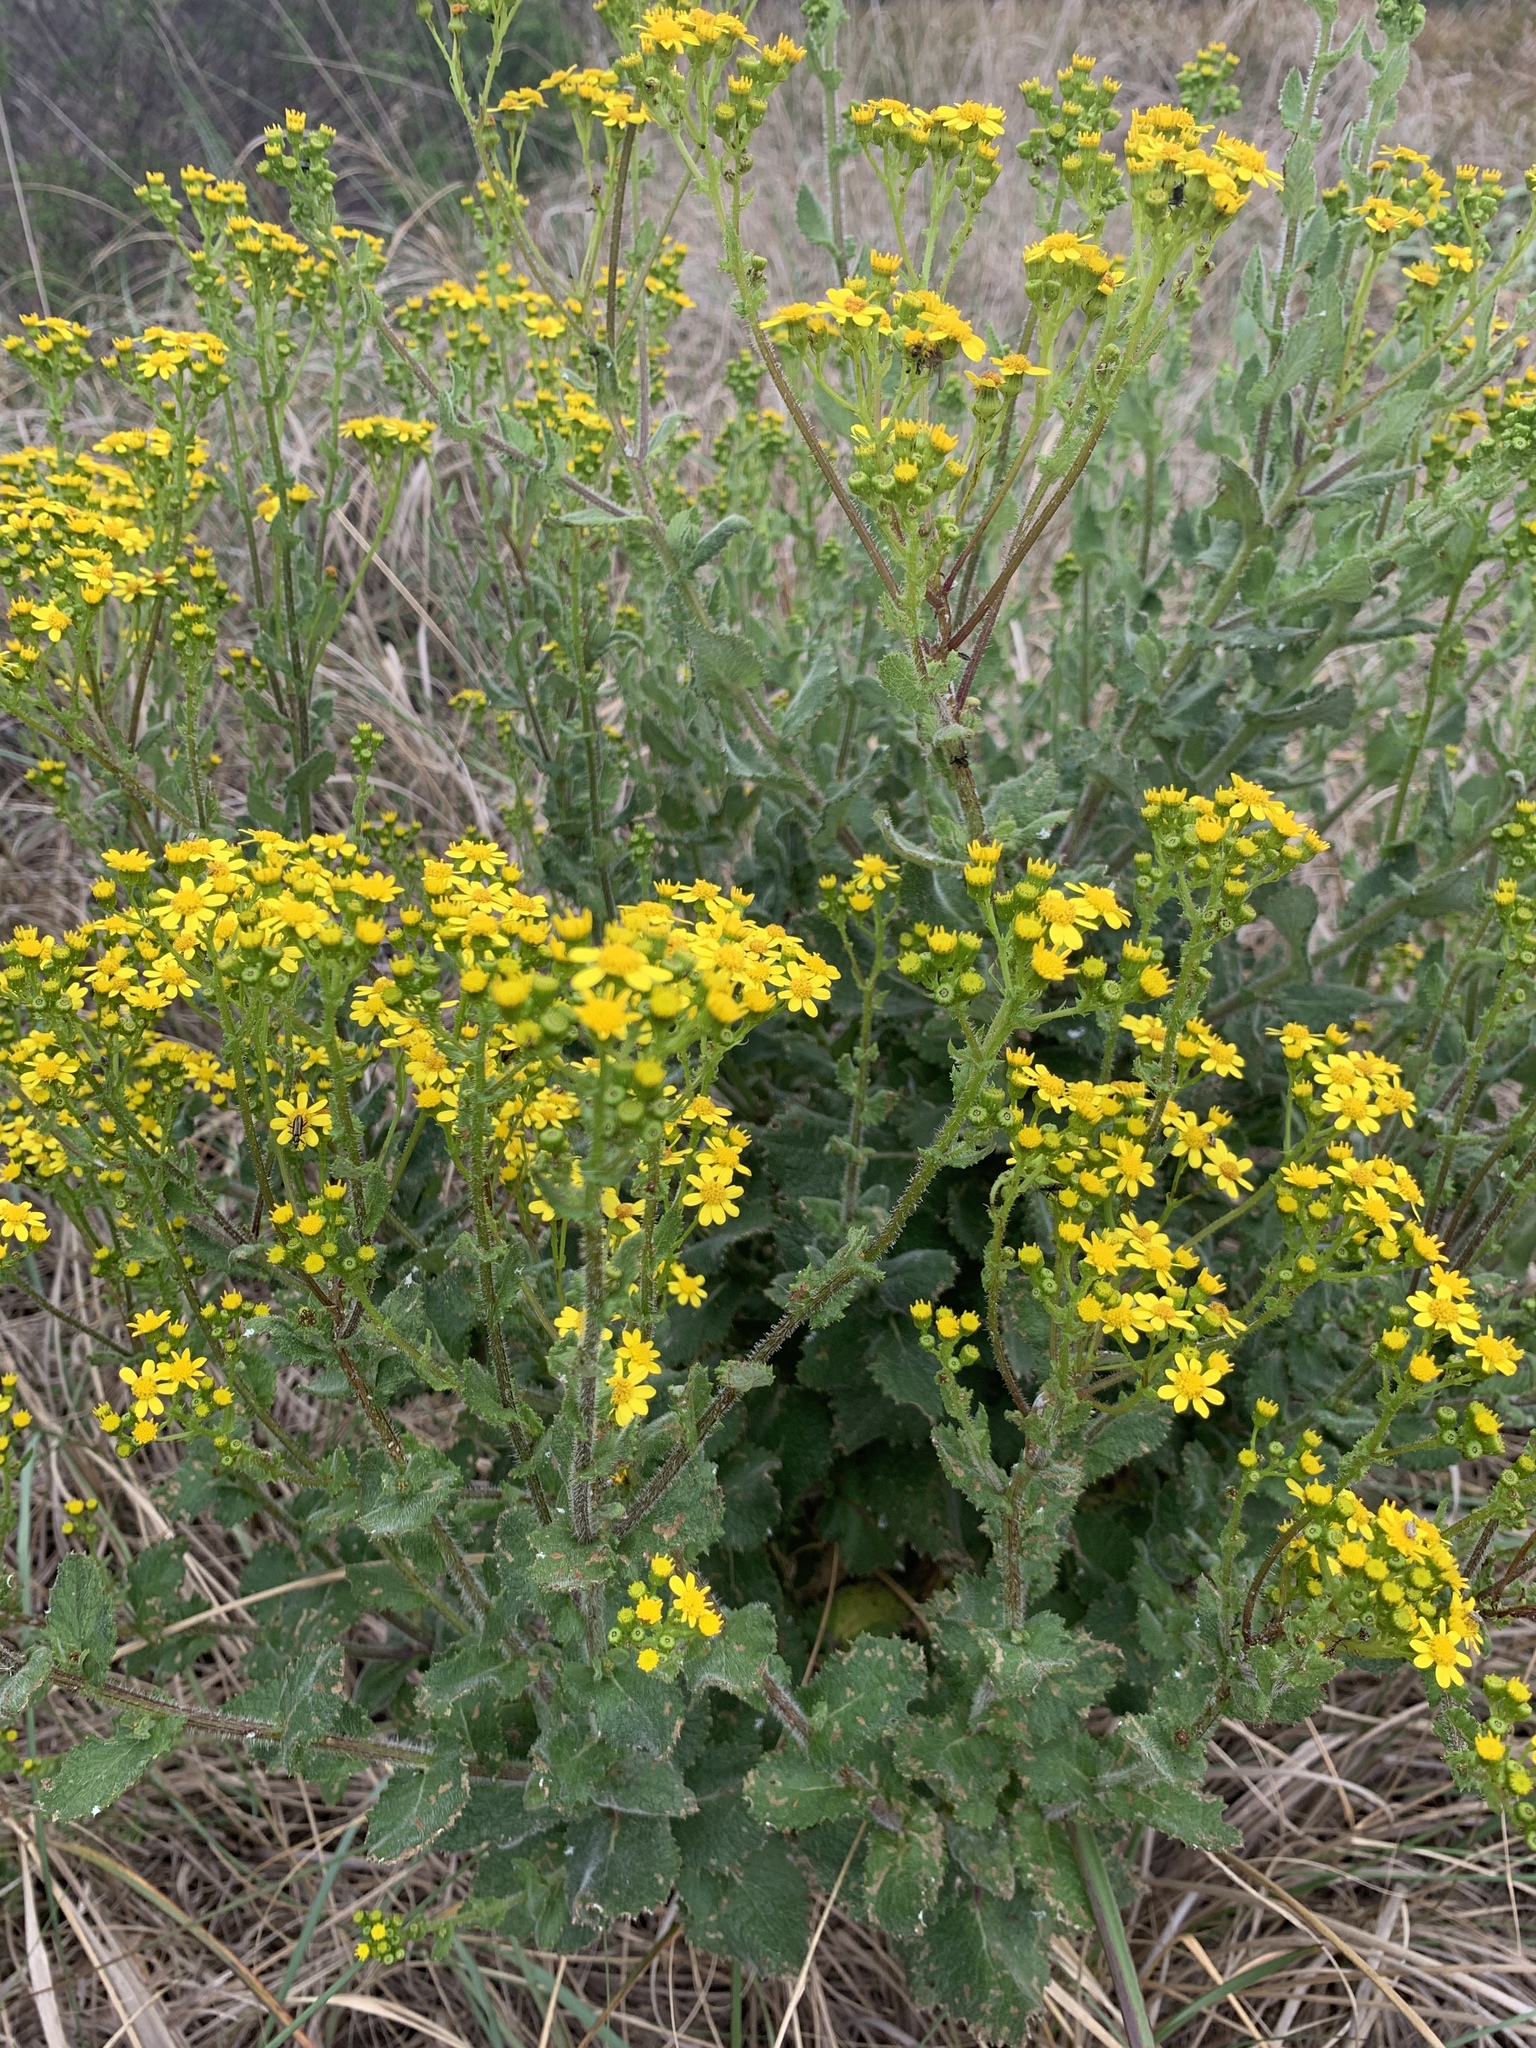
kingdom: Plantae
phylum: Tracheophyta
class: Magnoliopsida
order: Asterales
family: Asteraceae
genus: Senecio
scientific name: Senecio subcanescens
